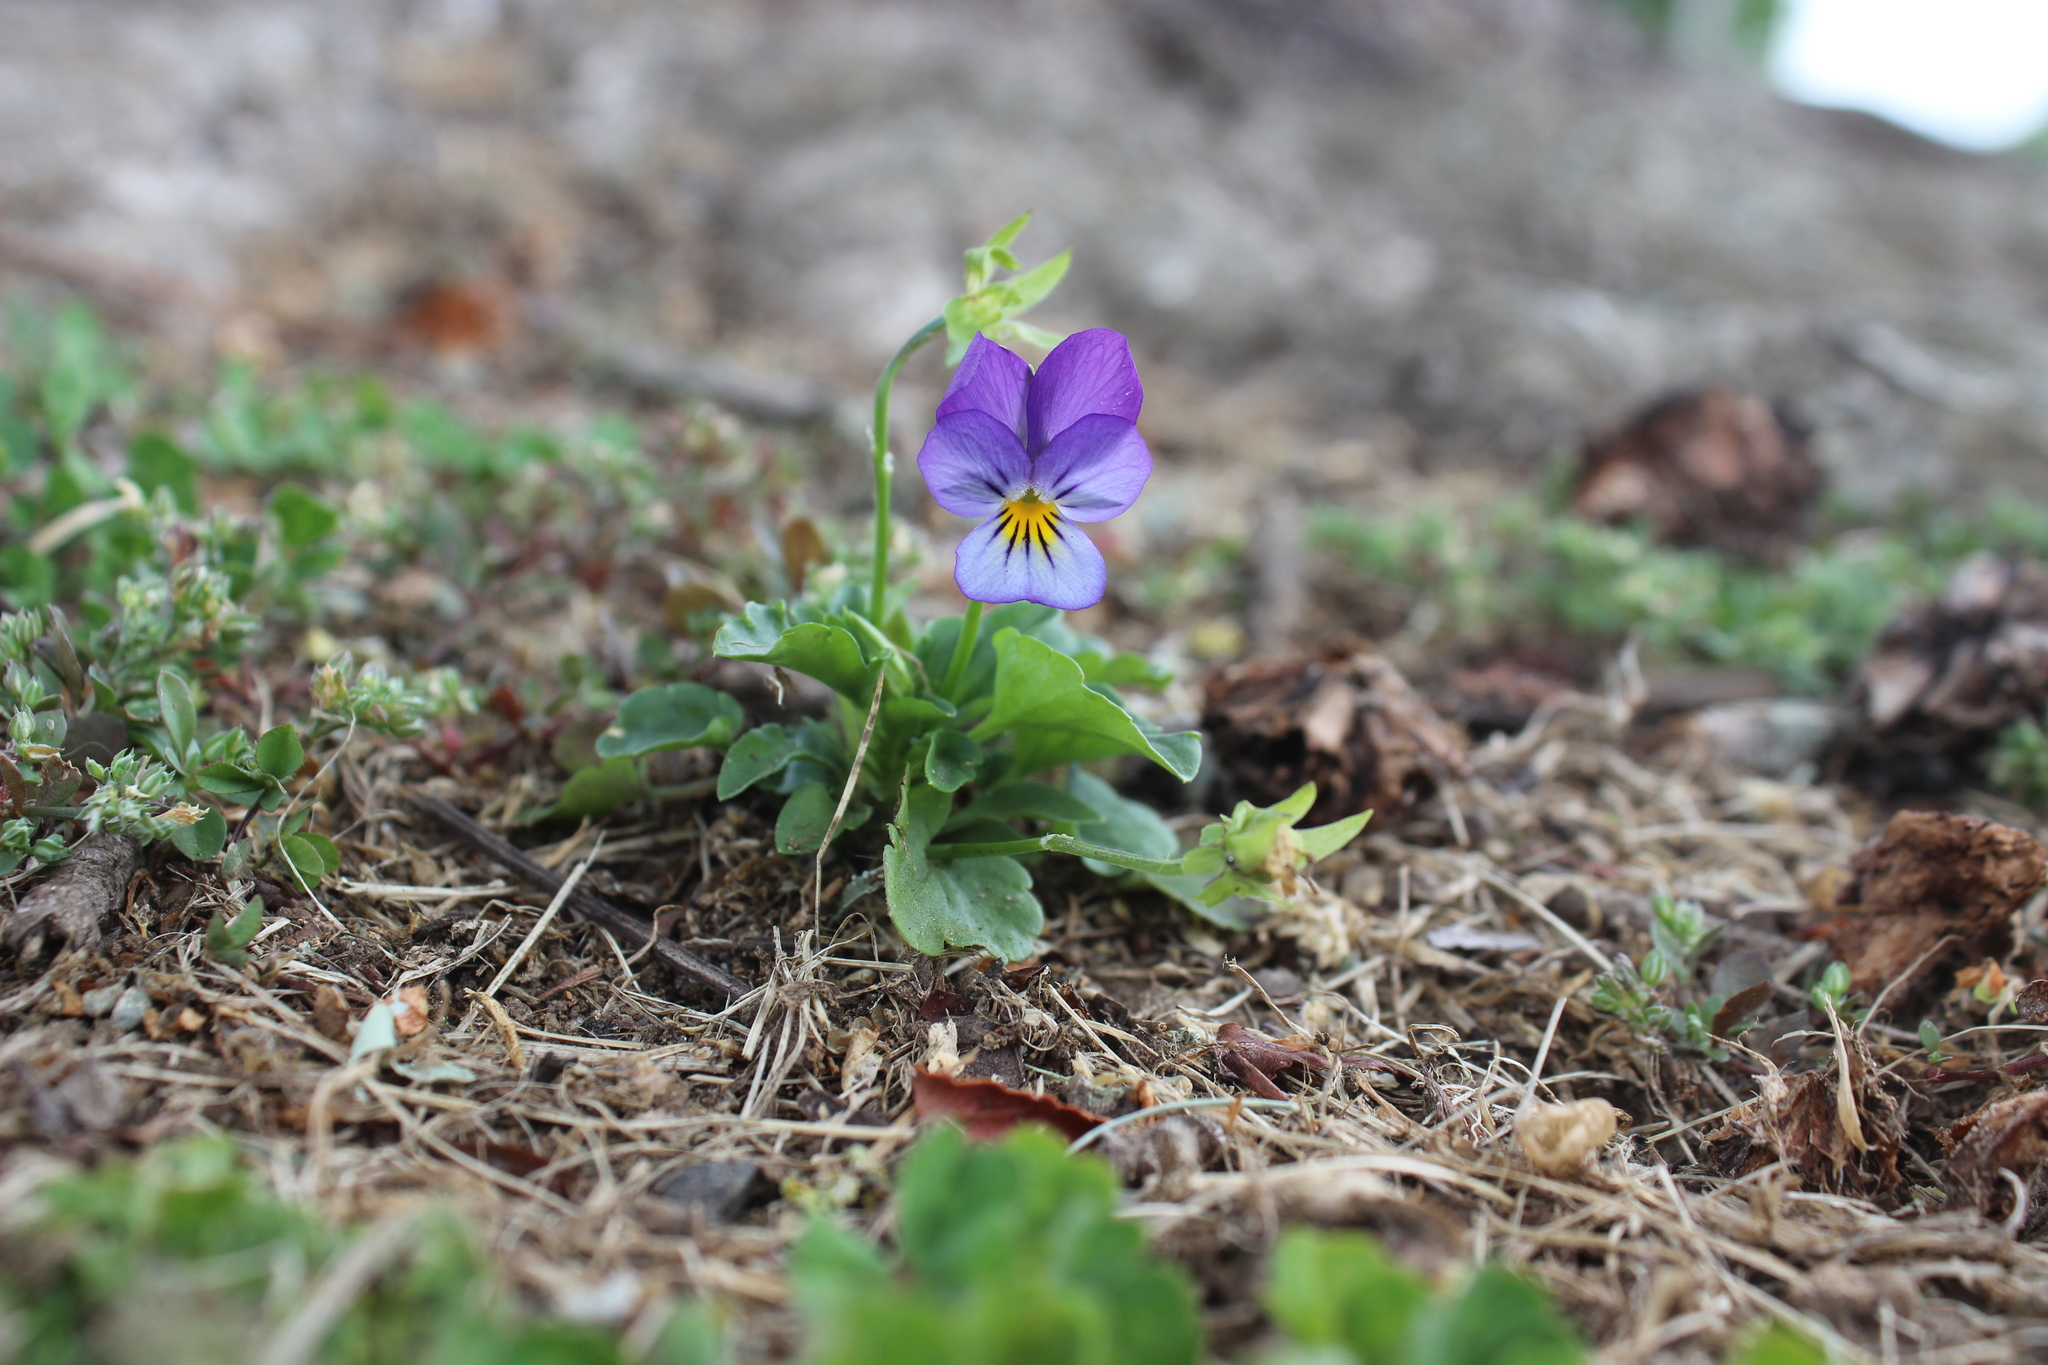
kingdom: Plantae
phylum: Tracheophyta
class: Magnoliopsida
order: Malpighiales
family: Violaceae
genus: Viola
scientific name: Viola williamsii
